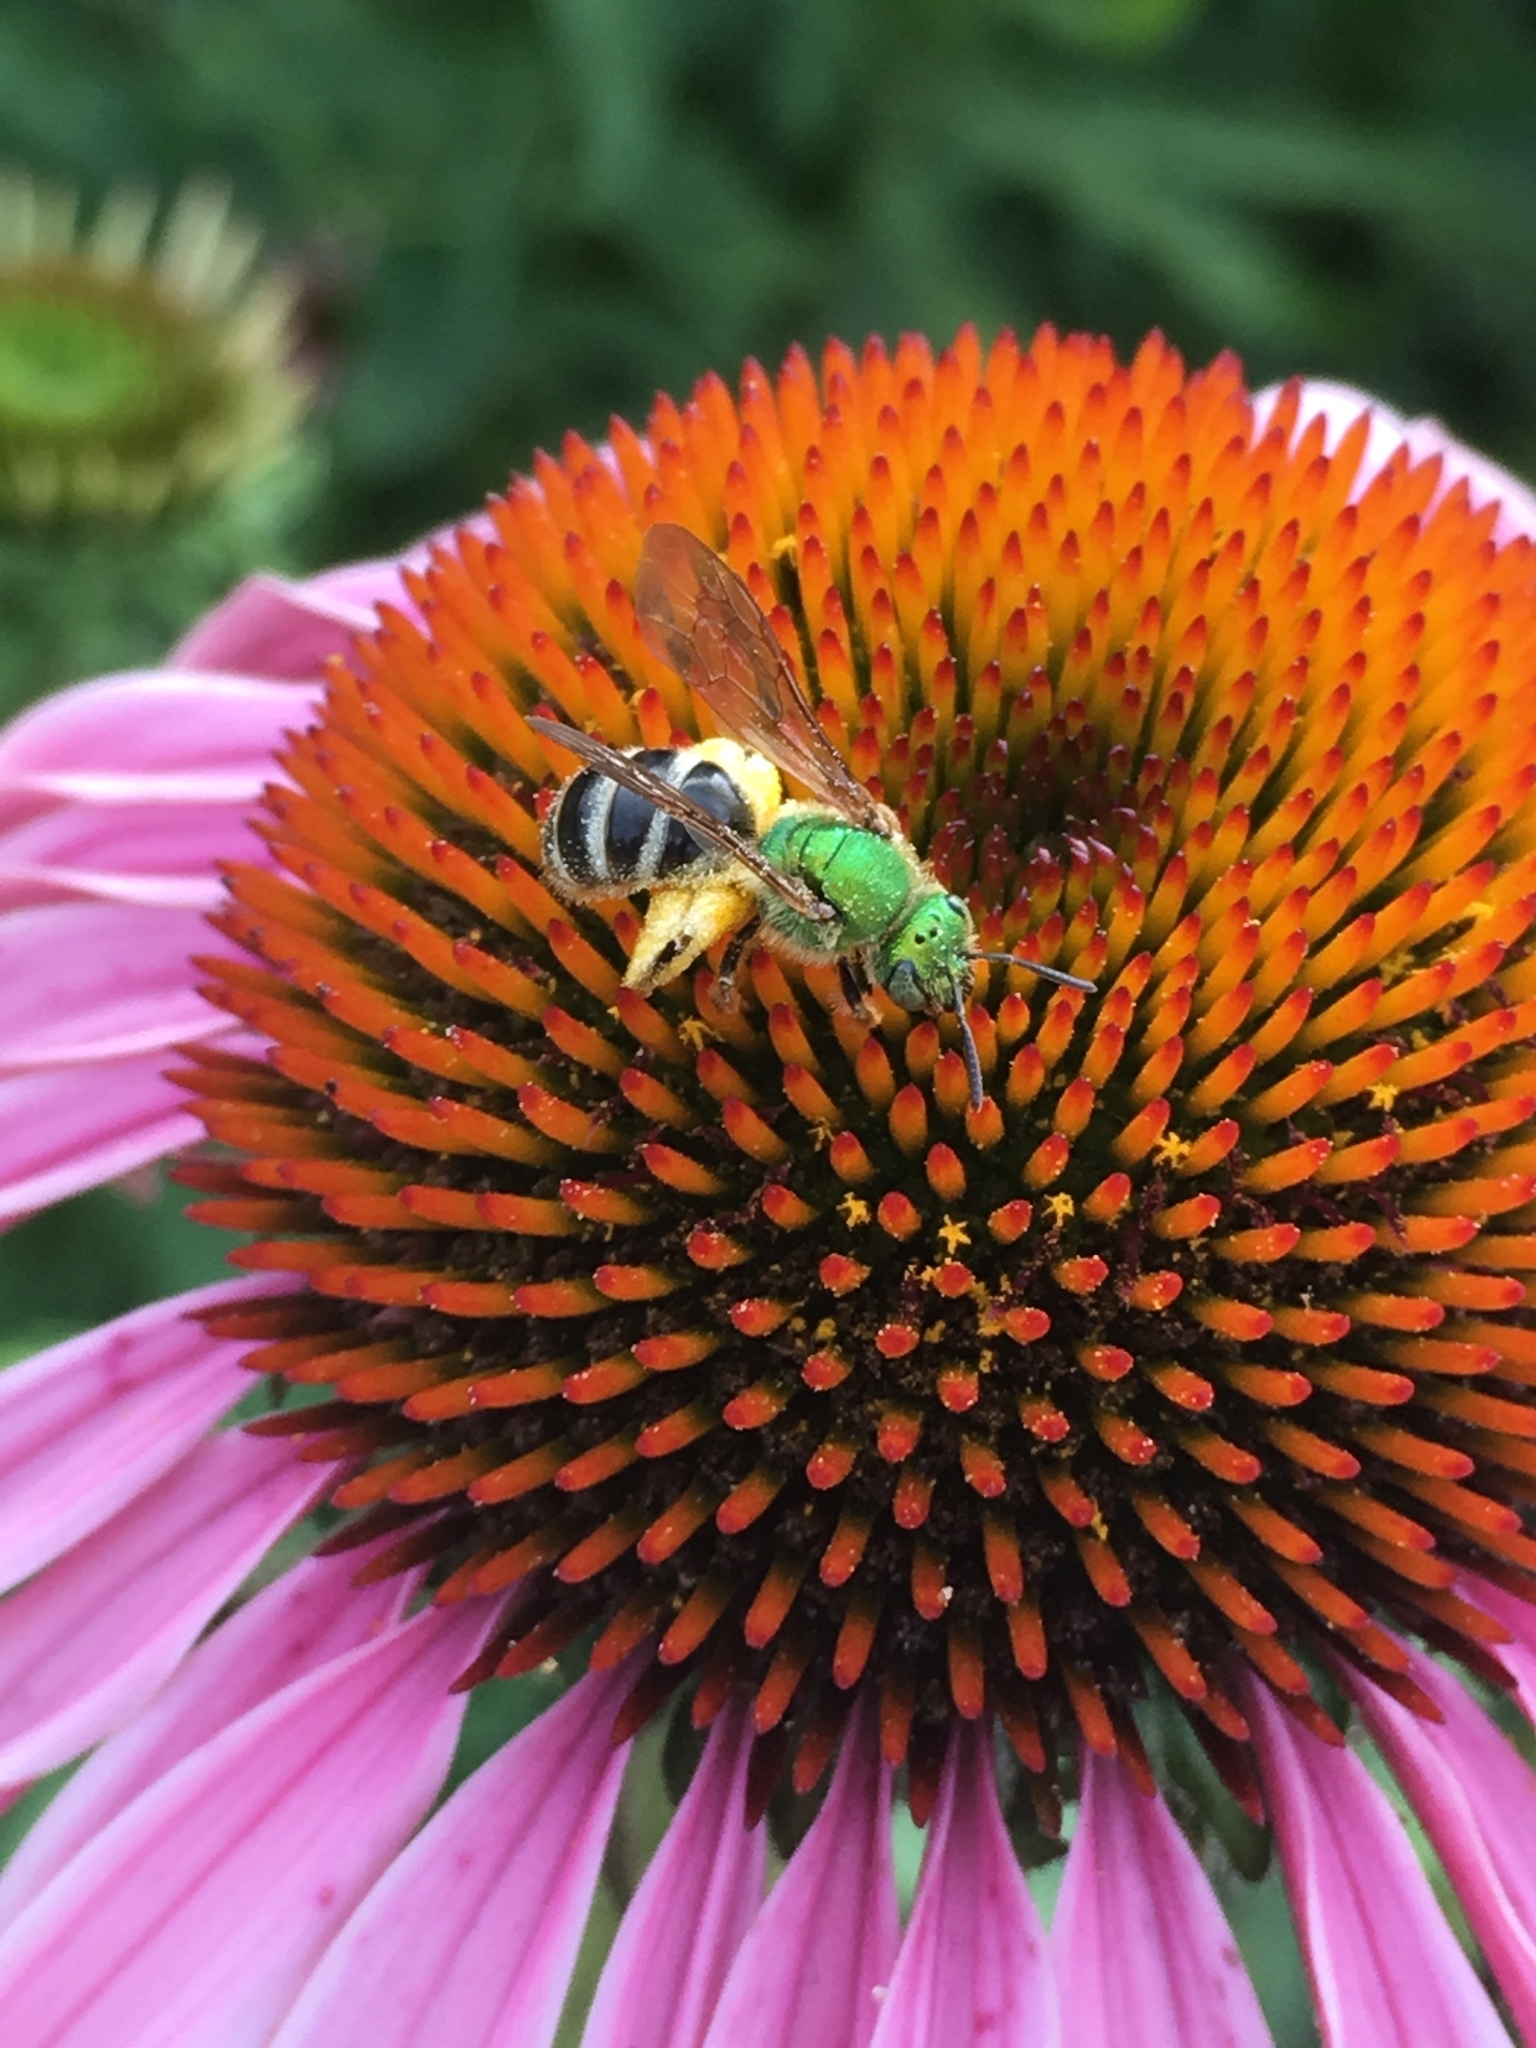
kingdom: Animalia
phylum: Arthropoda
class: Insecta
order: Hymenoptera
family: Halictidae
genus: Agapostemon
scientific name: Agapostemon virescens
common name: Bicolored striped sweat bee
